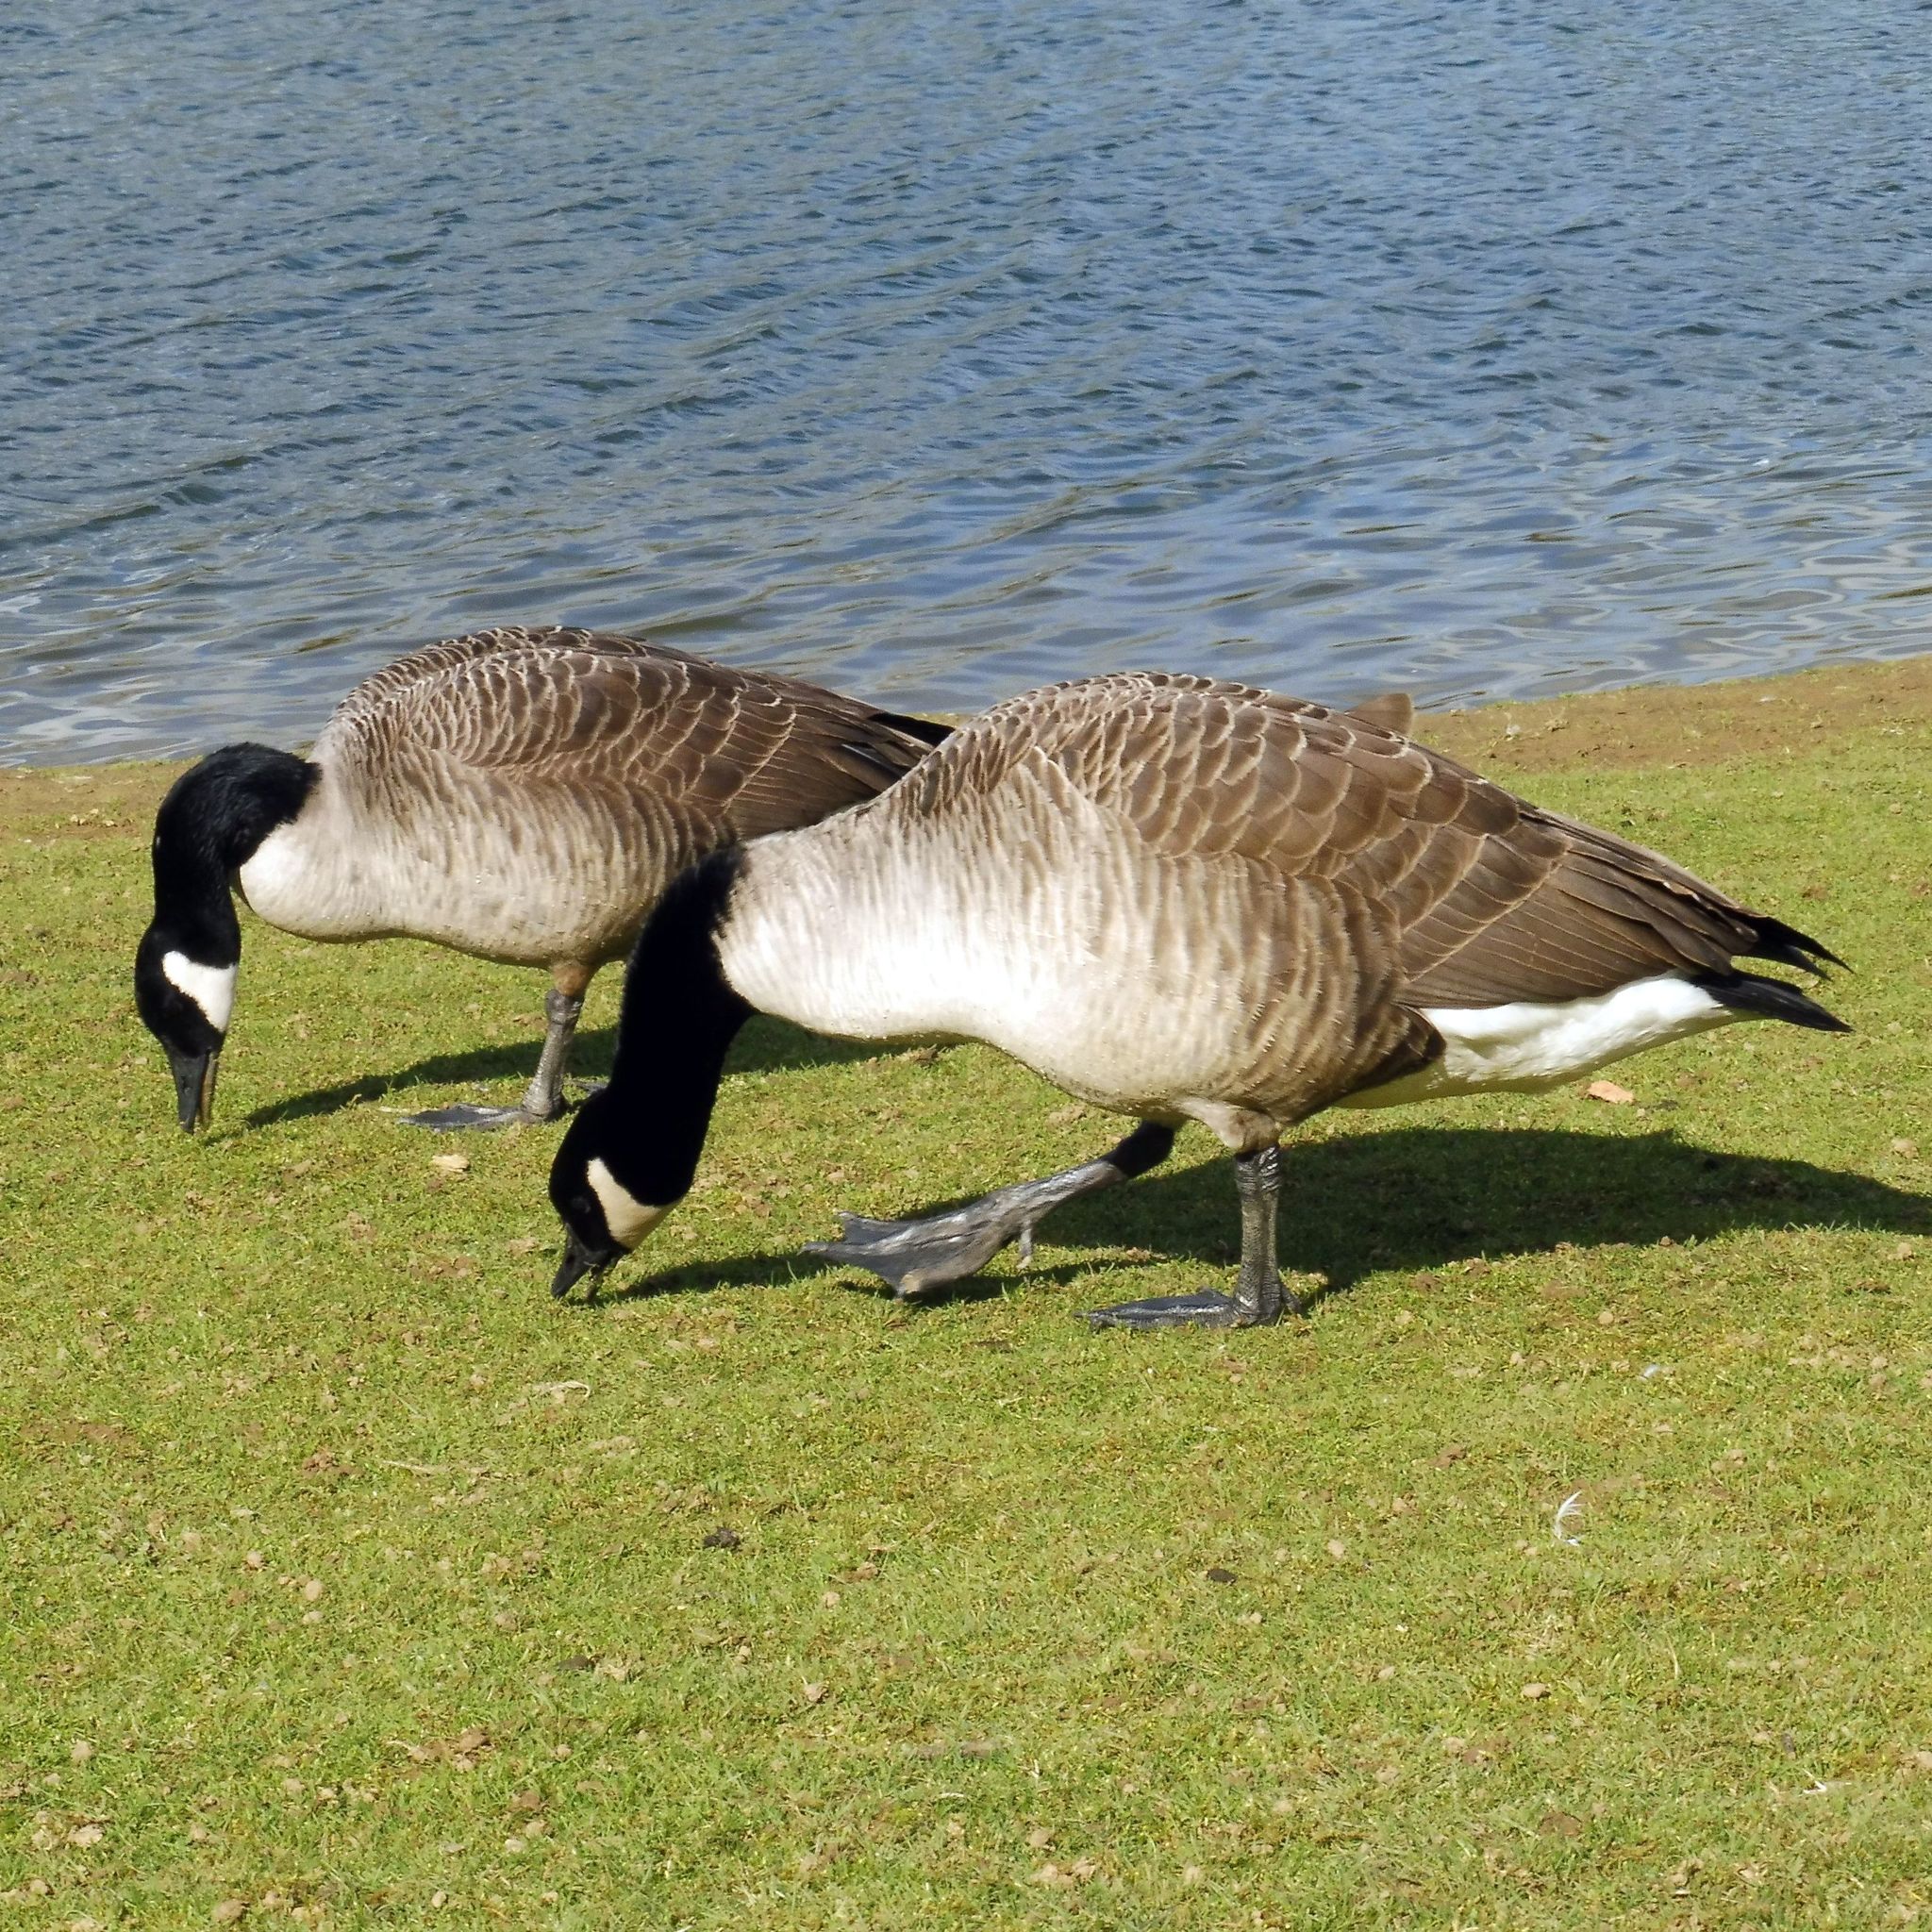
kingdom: Animalia
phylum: Chordata
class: Aves
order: Anseriformes
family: Anatidae
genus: Branta
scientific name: Branta canadensis
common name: Canada goose
